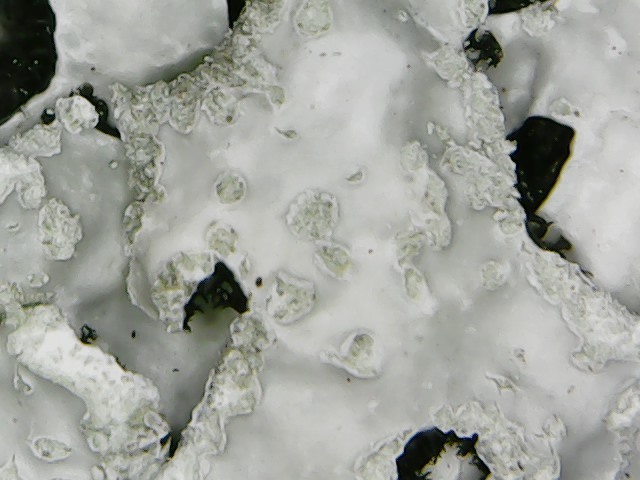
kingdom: Fungi
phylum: Ascomycota
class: Lecanoromycetes
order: Lecanorales
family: Parmeliaceae
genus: Parmelia
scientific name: Parmelia sulcata
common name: Netted shield lichen
